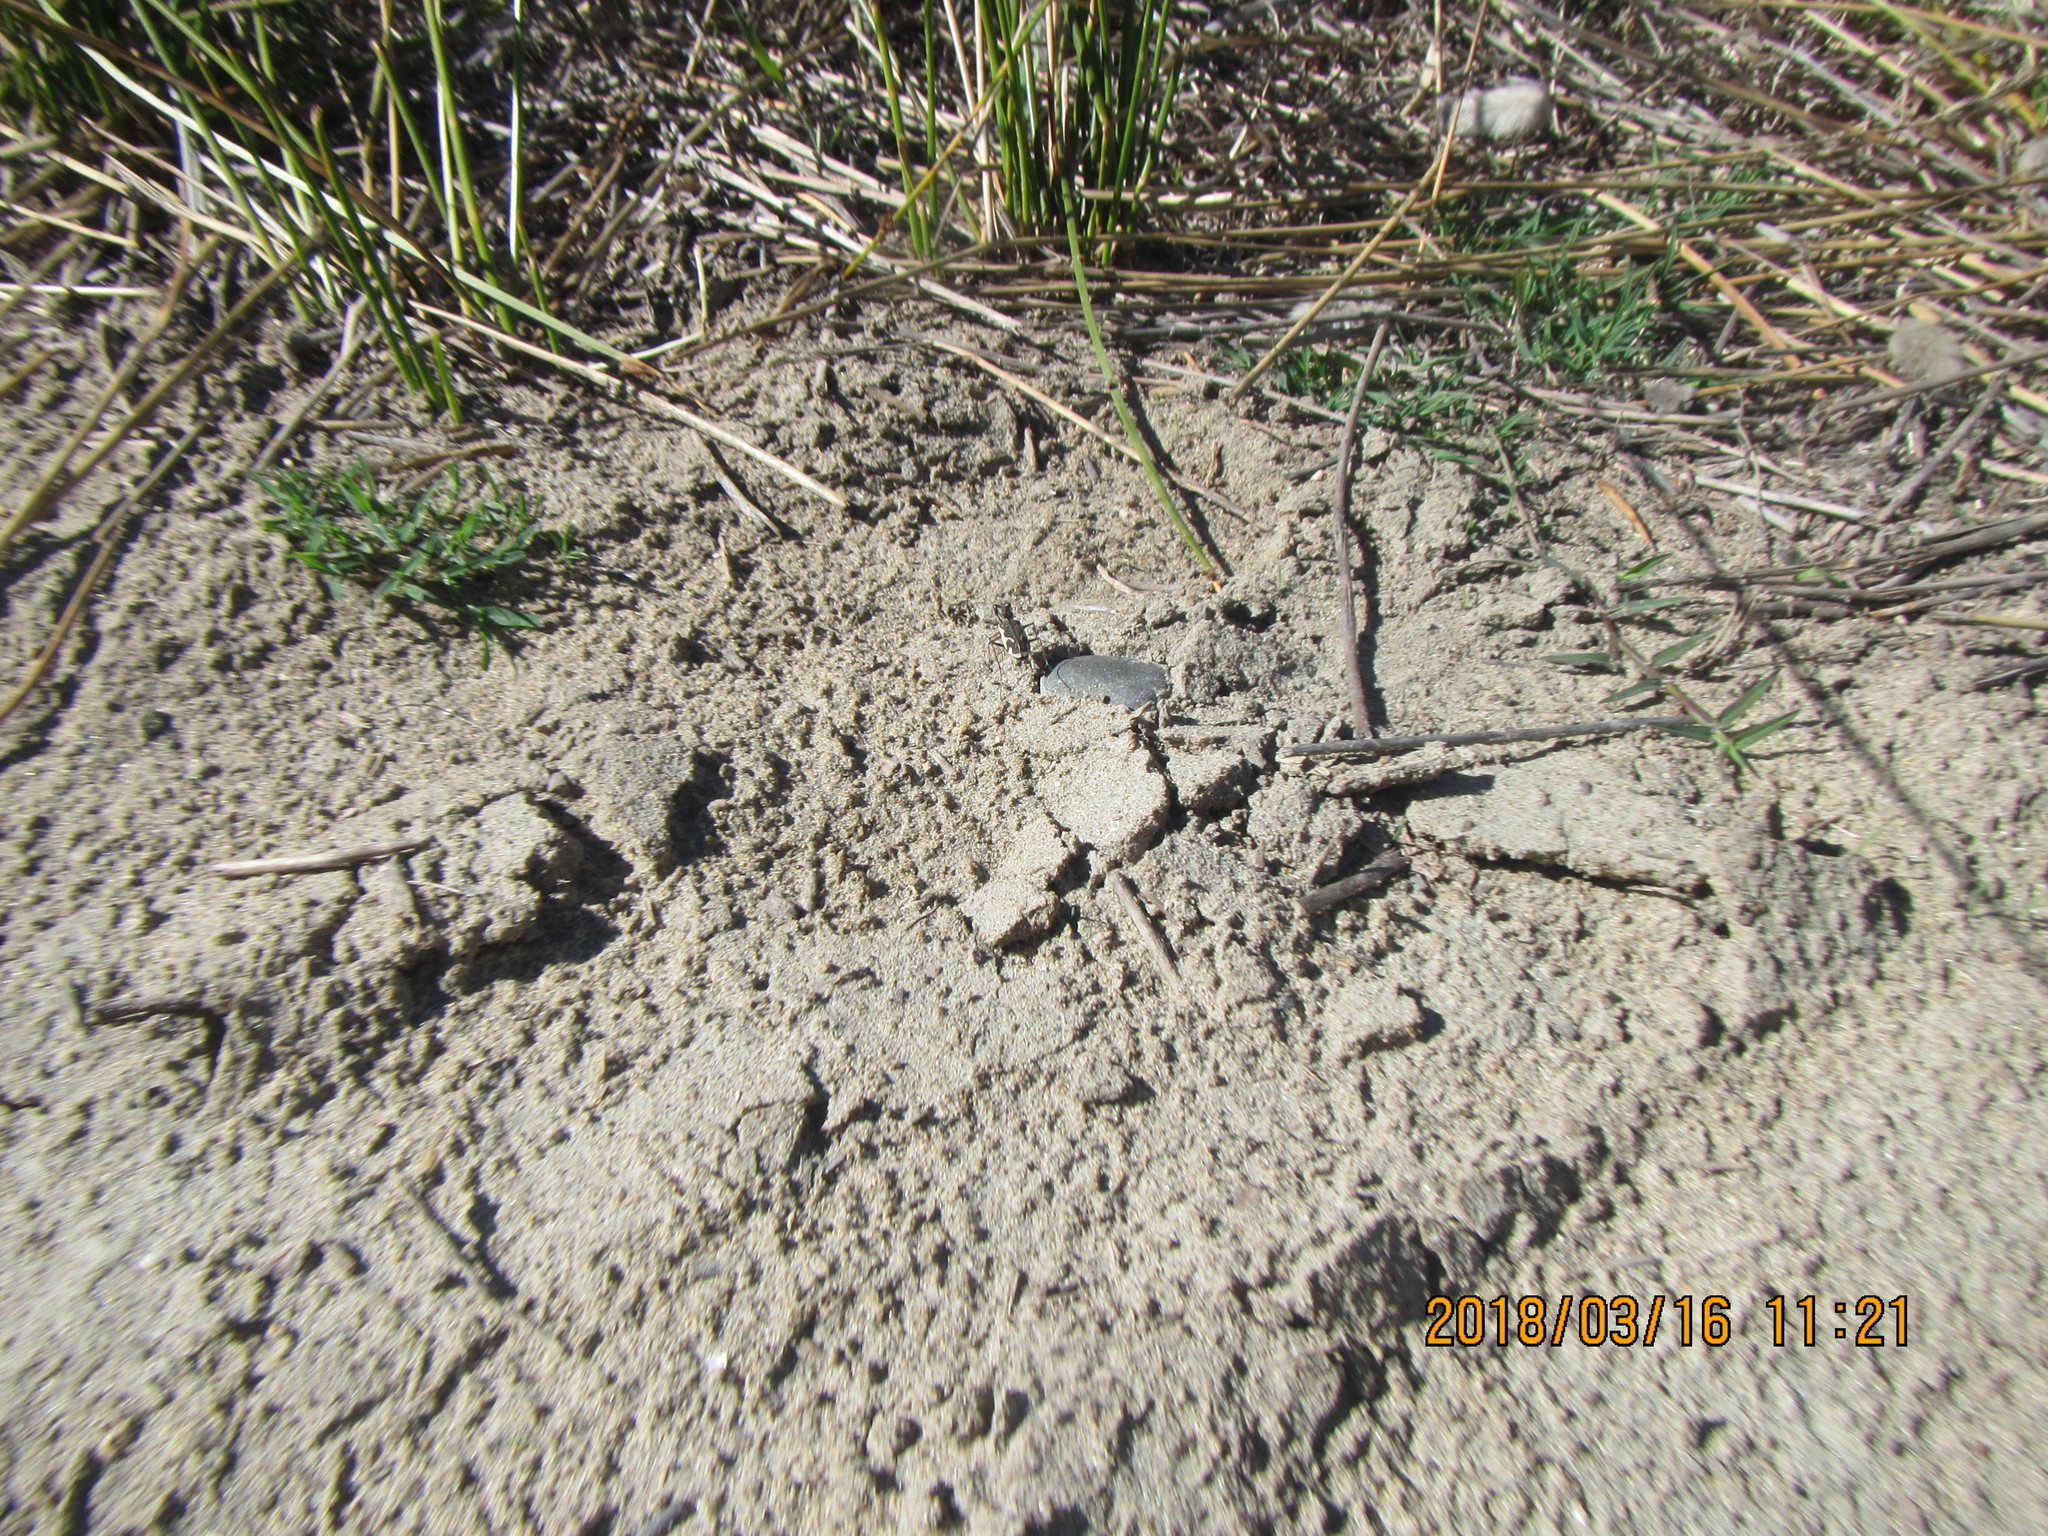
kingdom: Animalia
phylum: Arthropoda
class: Insecta
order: Coleoptera
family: Carabidae
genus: Neocicindela
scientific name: Neocicindela tuberculata
